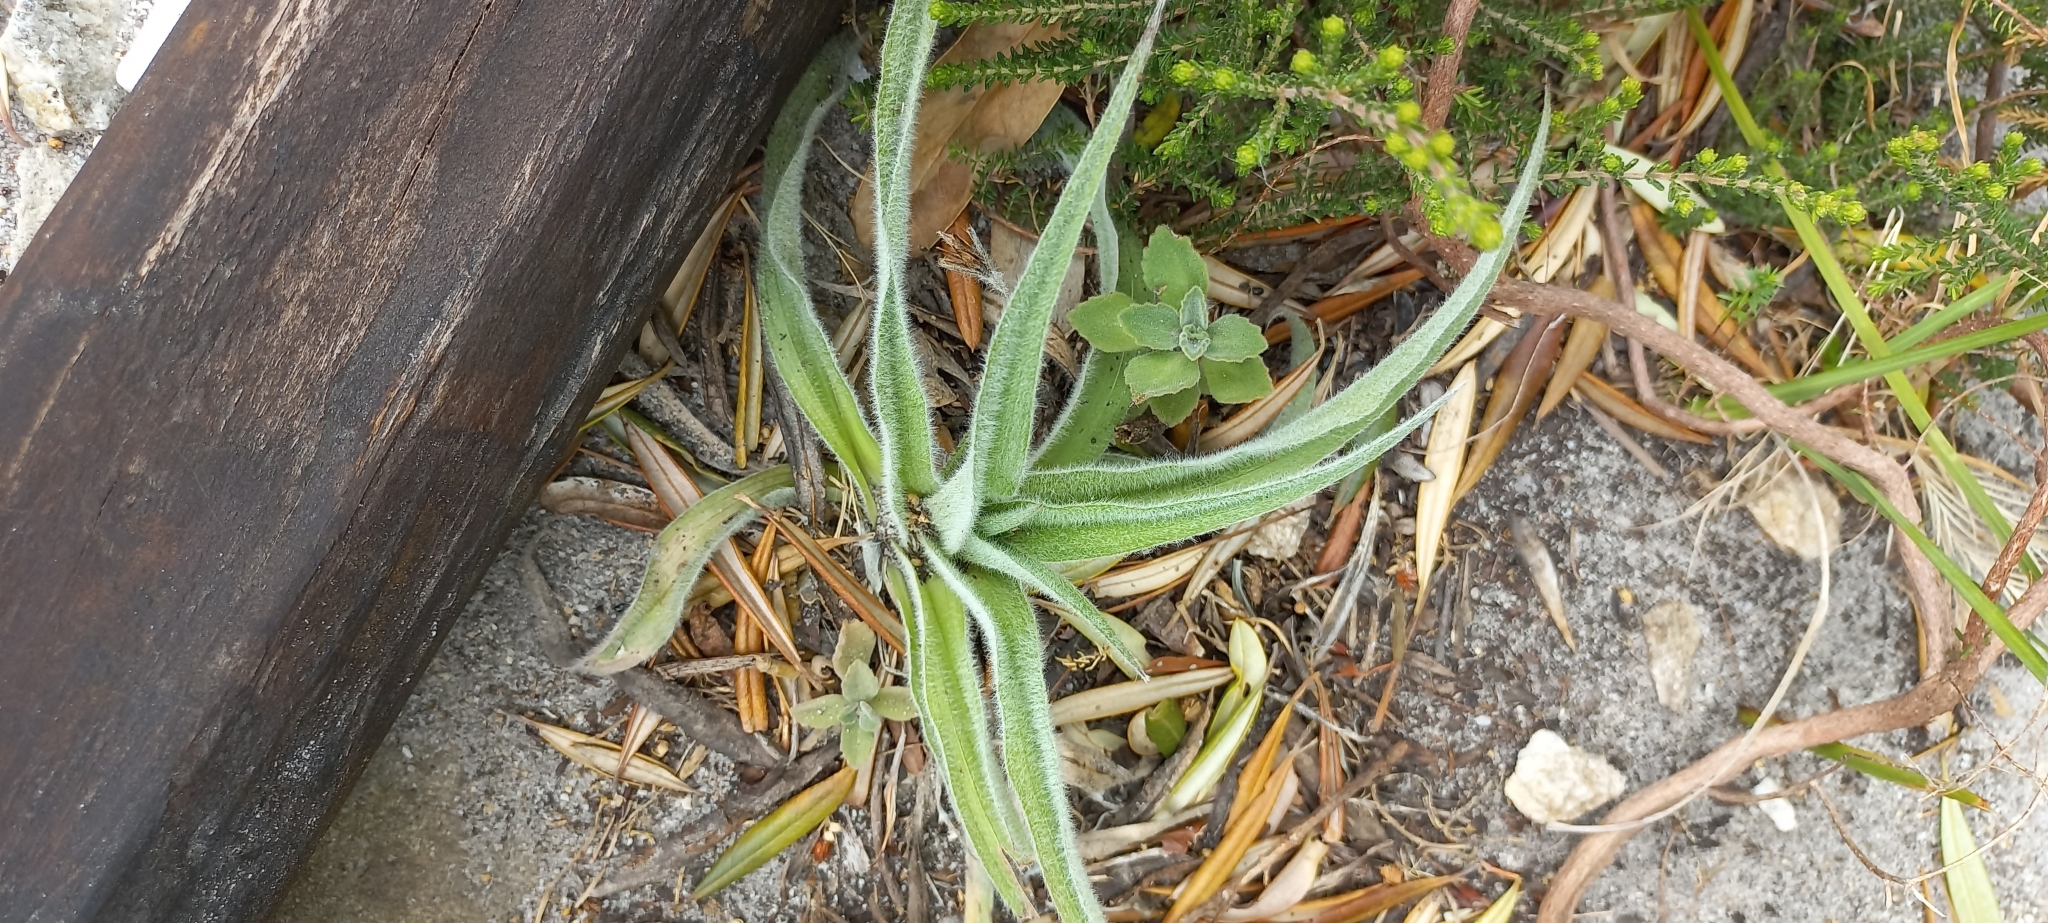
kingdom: Plantae
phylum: Tracheophyta
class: Liliopsida
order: Asparagales
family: Hypoxidaceae
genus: Hypoxis
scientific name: Hypoxis villosa
